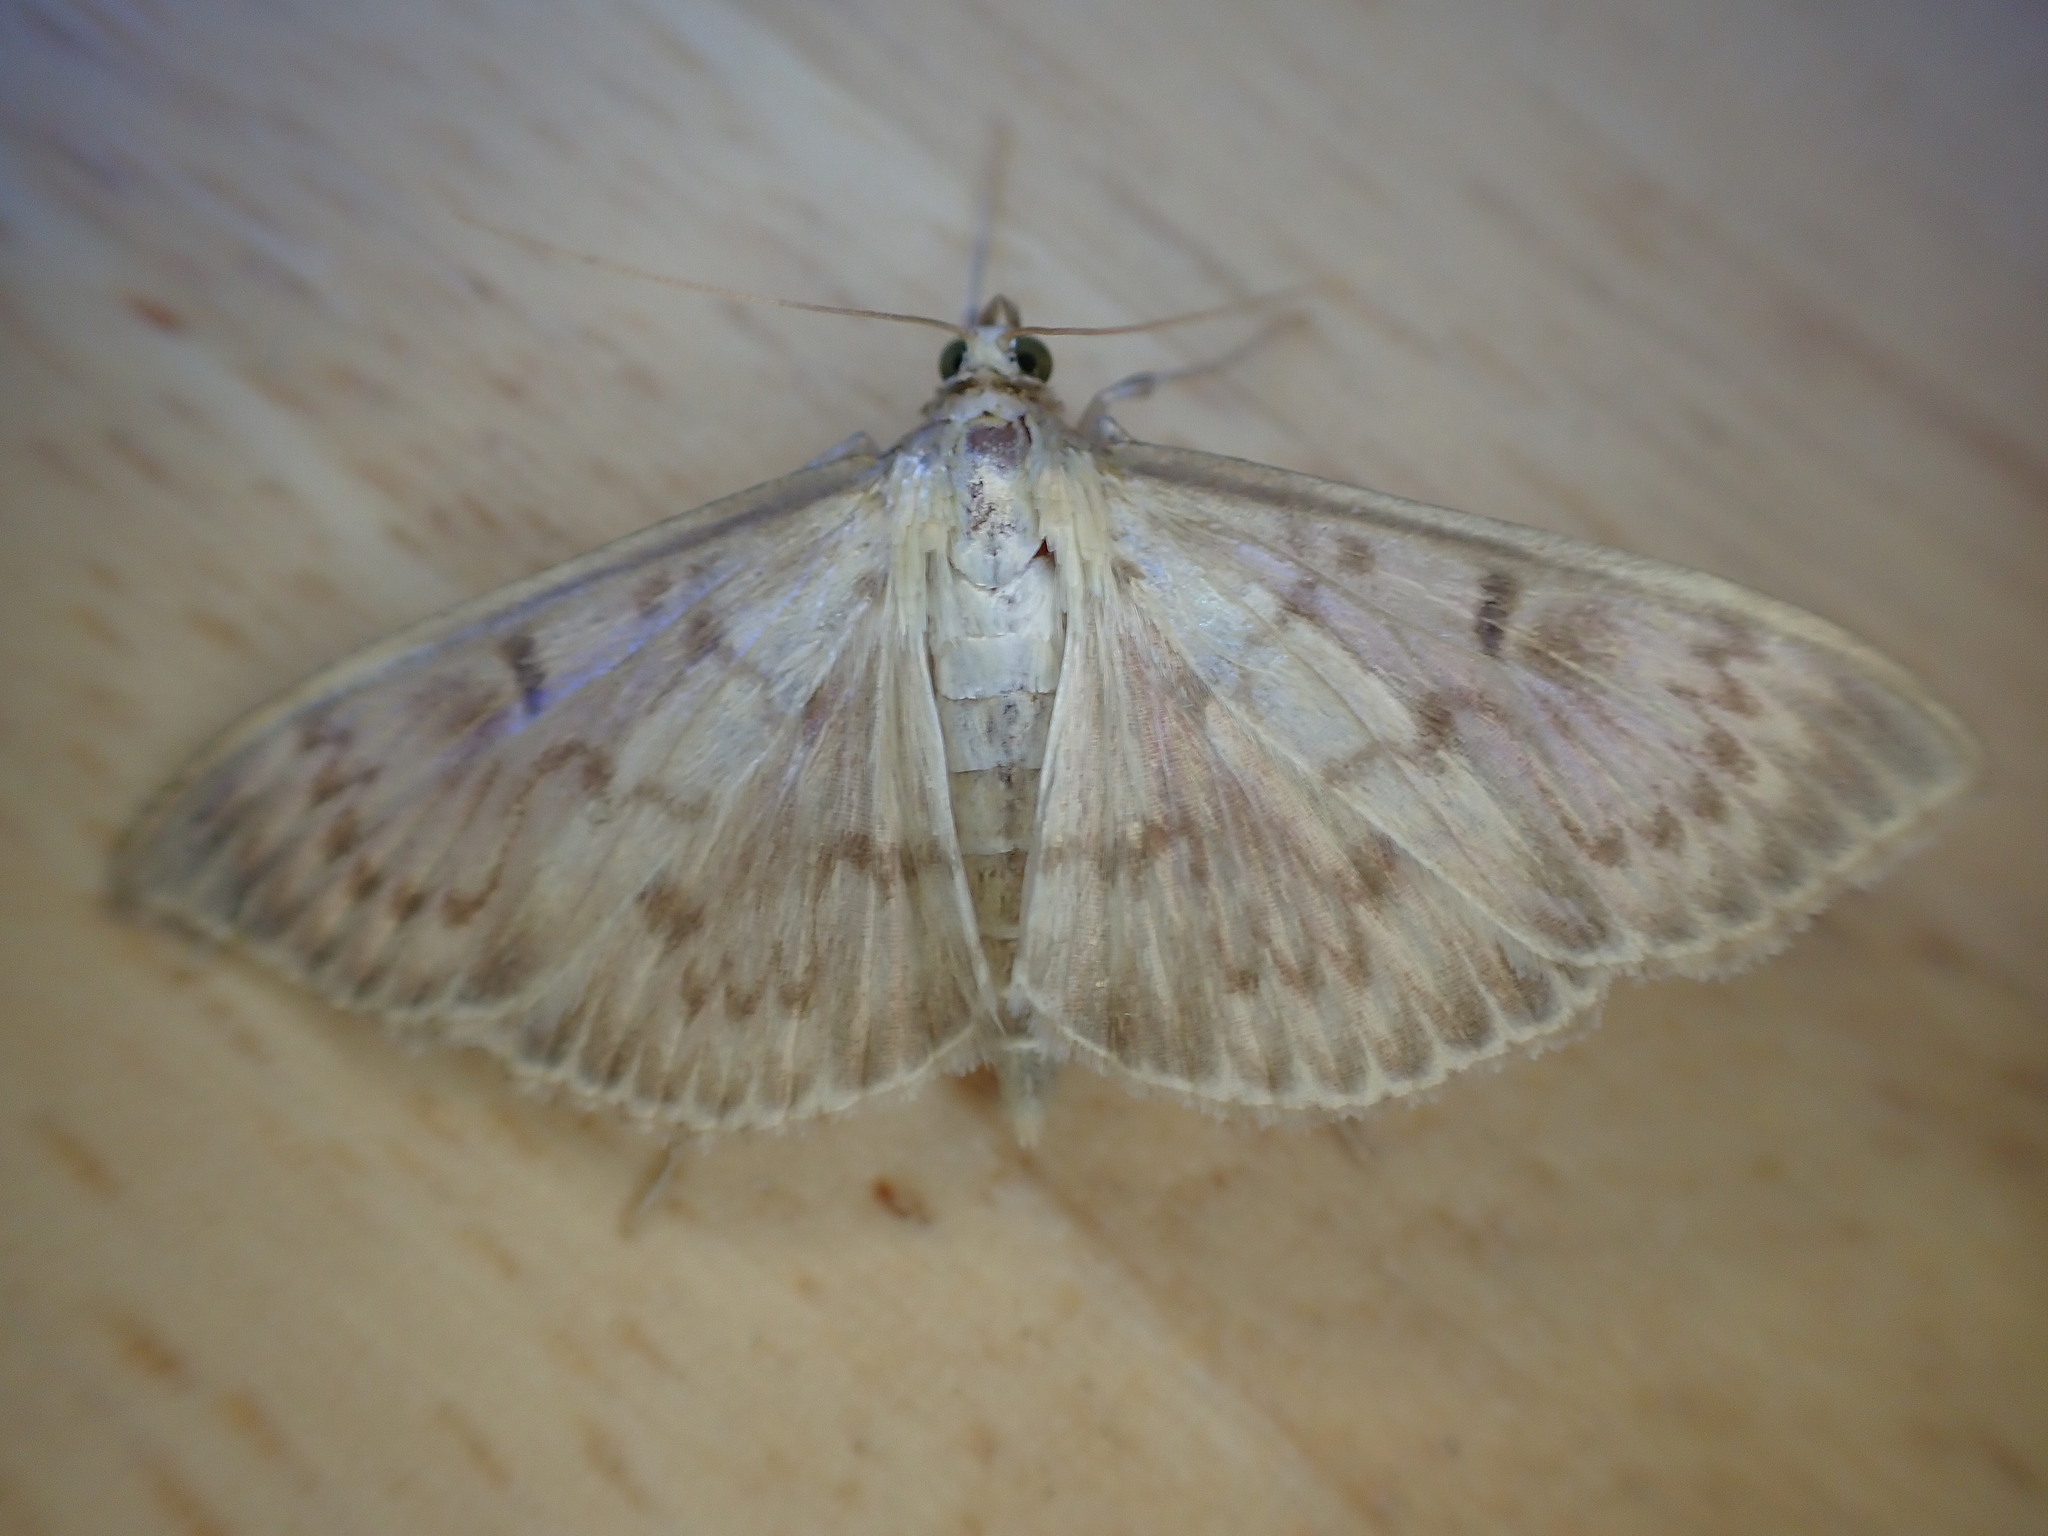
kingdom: Animalia
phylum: Arthropoda
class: Insecta
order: Lepidoptera
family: Crambidae
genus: Patania
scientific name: Patania ruralis
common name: Mother of pearl
